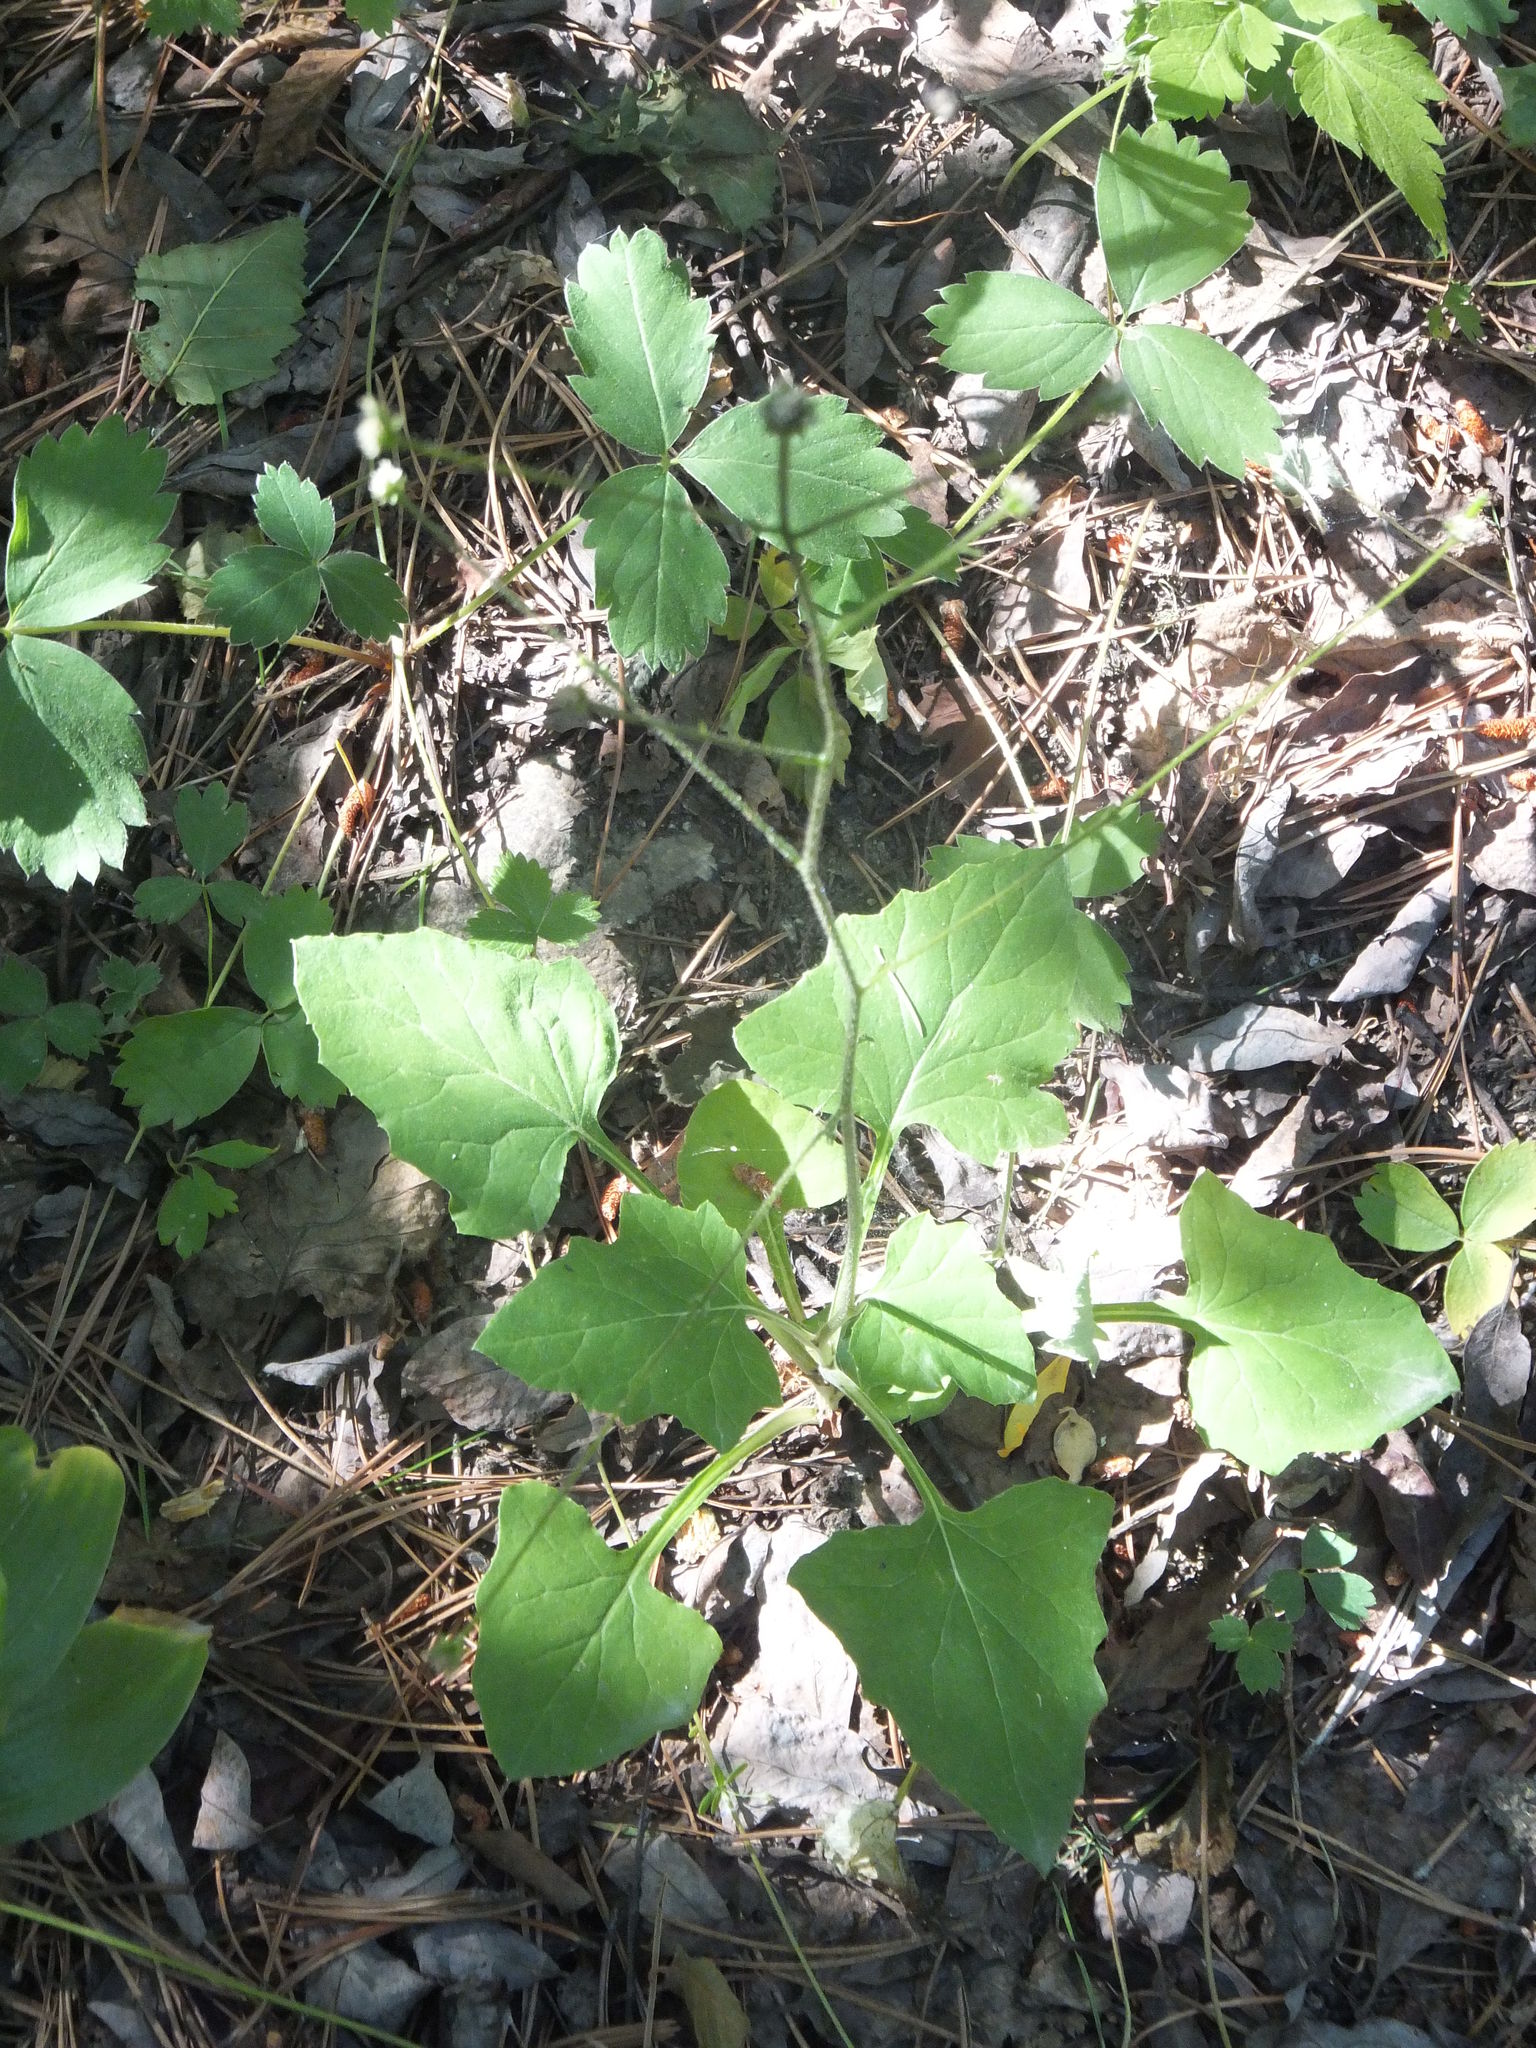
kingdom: Plantae
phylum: Tracheophyta
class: Magnoliopsida
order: Asterales
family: Asteraceae
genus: Adenocaulon
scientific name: Adenocaulon bicolor
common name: Trailplant
